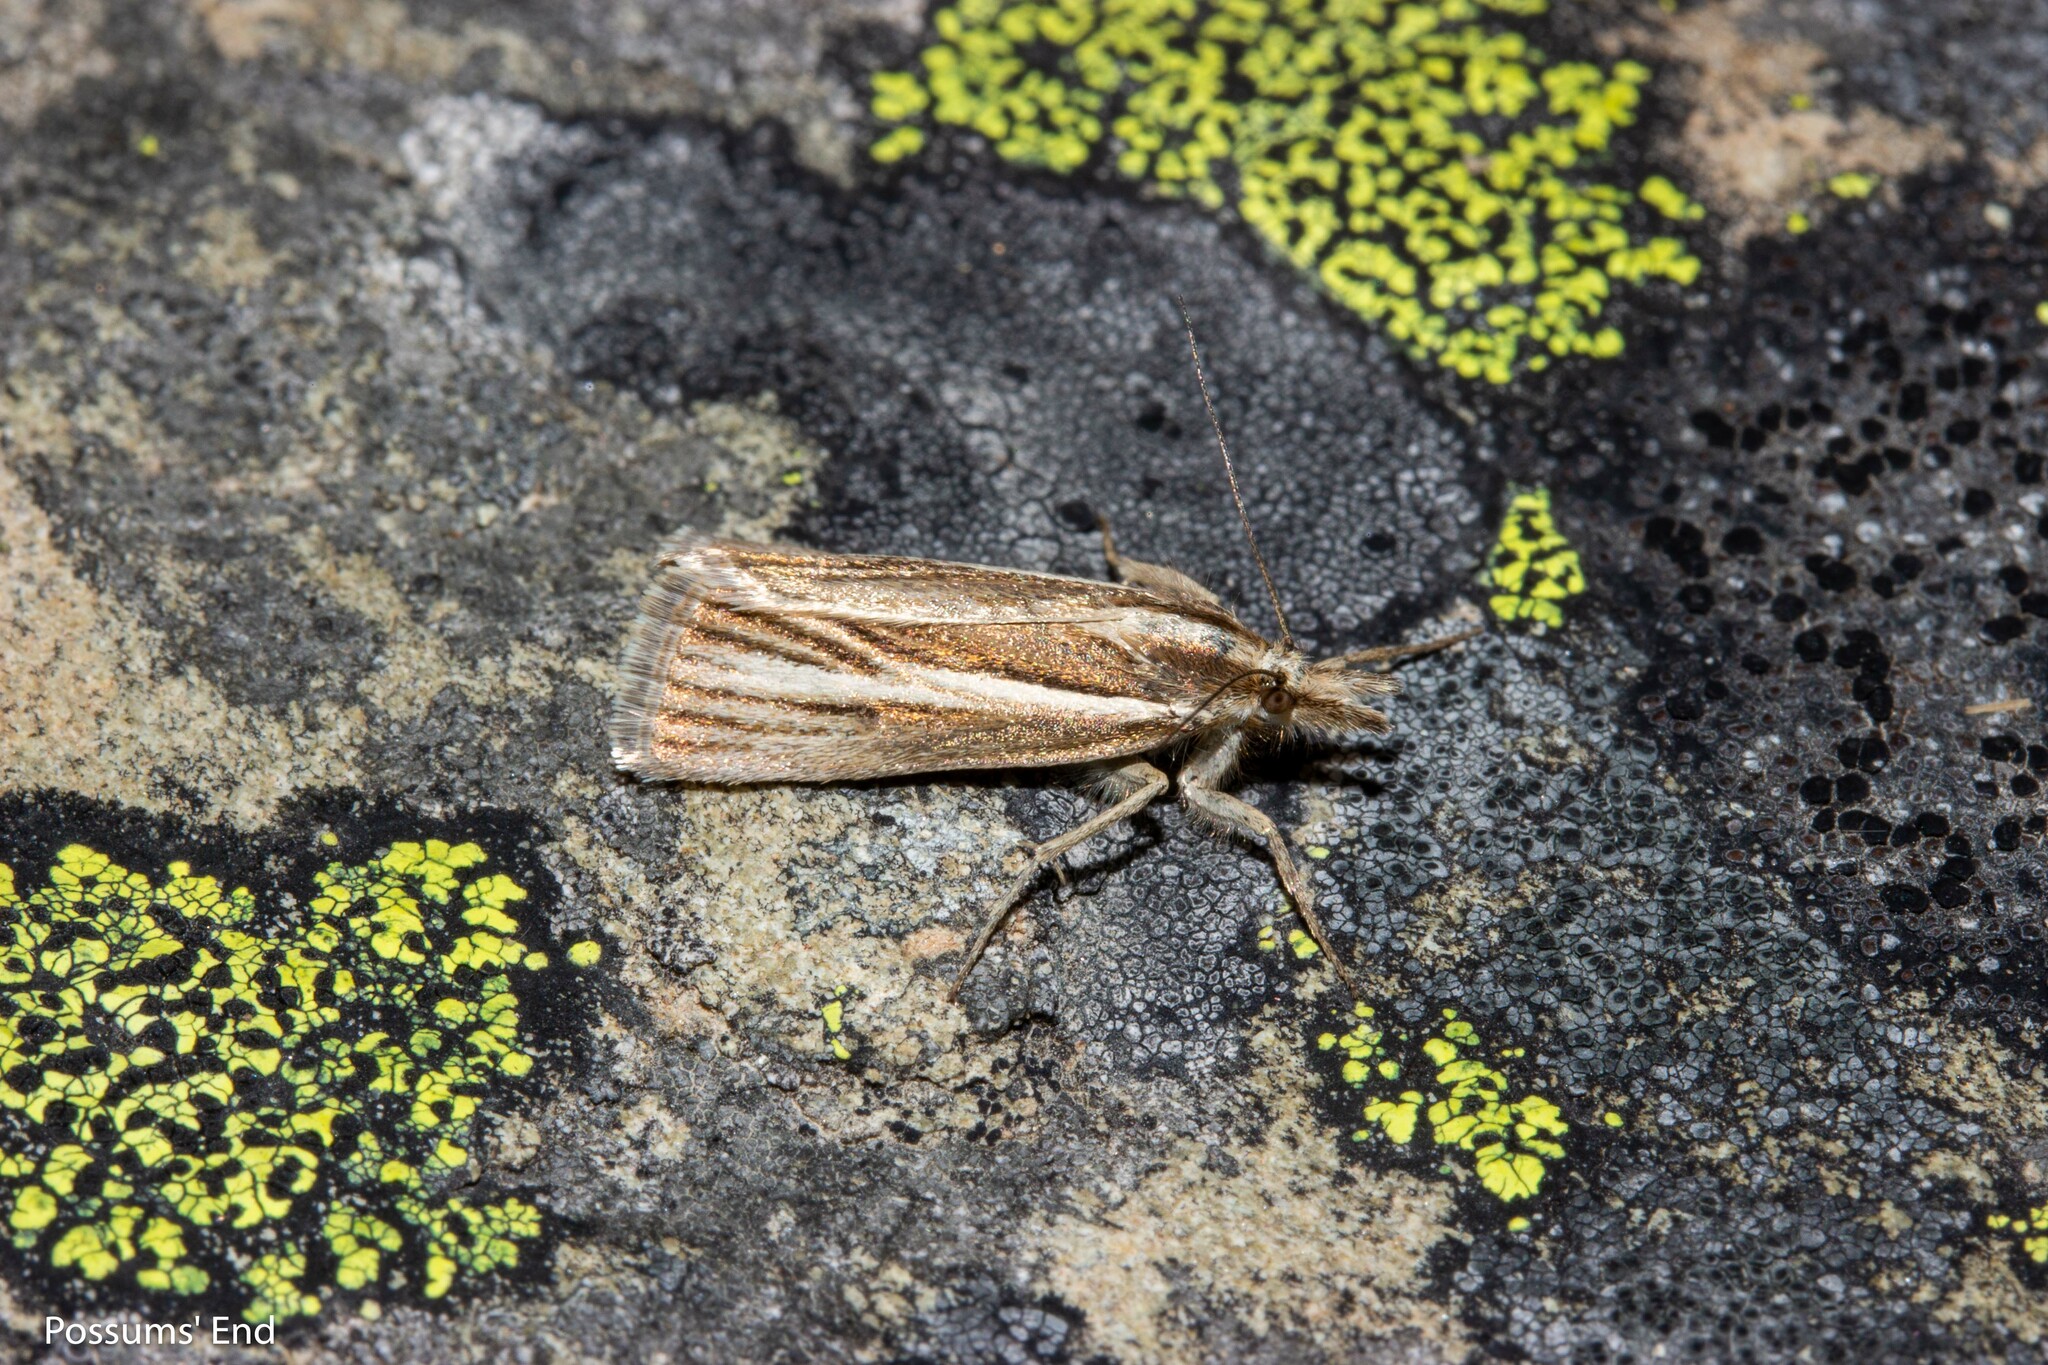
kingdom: Animalia
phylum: Arthropoda
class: Insecta
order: Lepidoptera
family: Crambidae
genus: Orocrambus
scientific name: Orocrambus tritonellus
